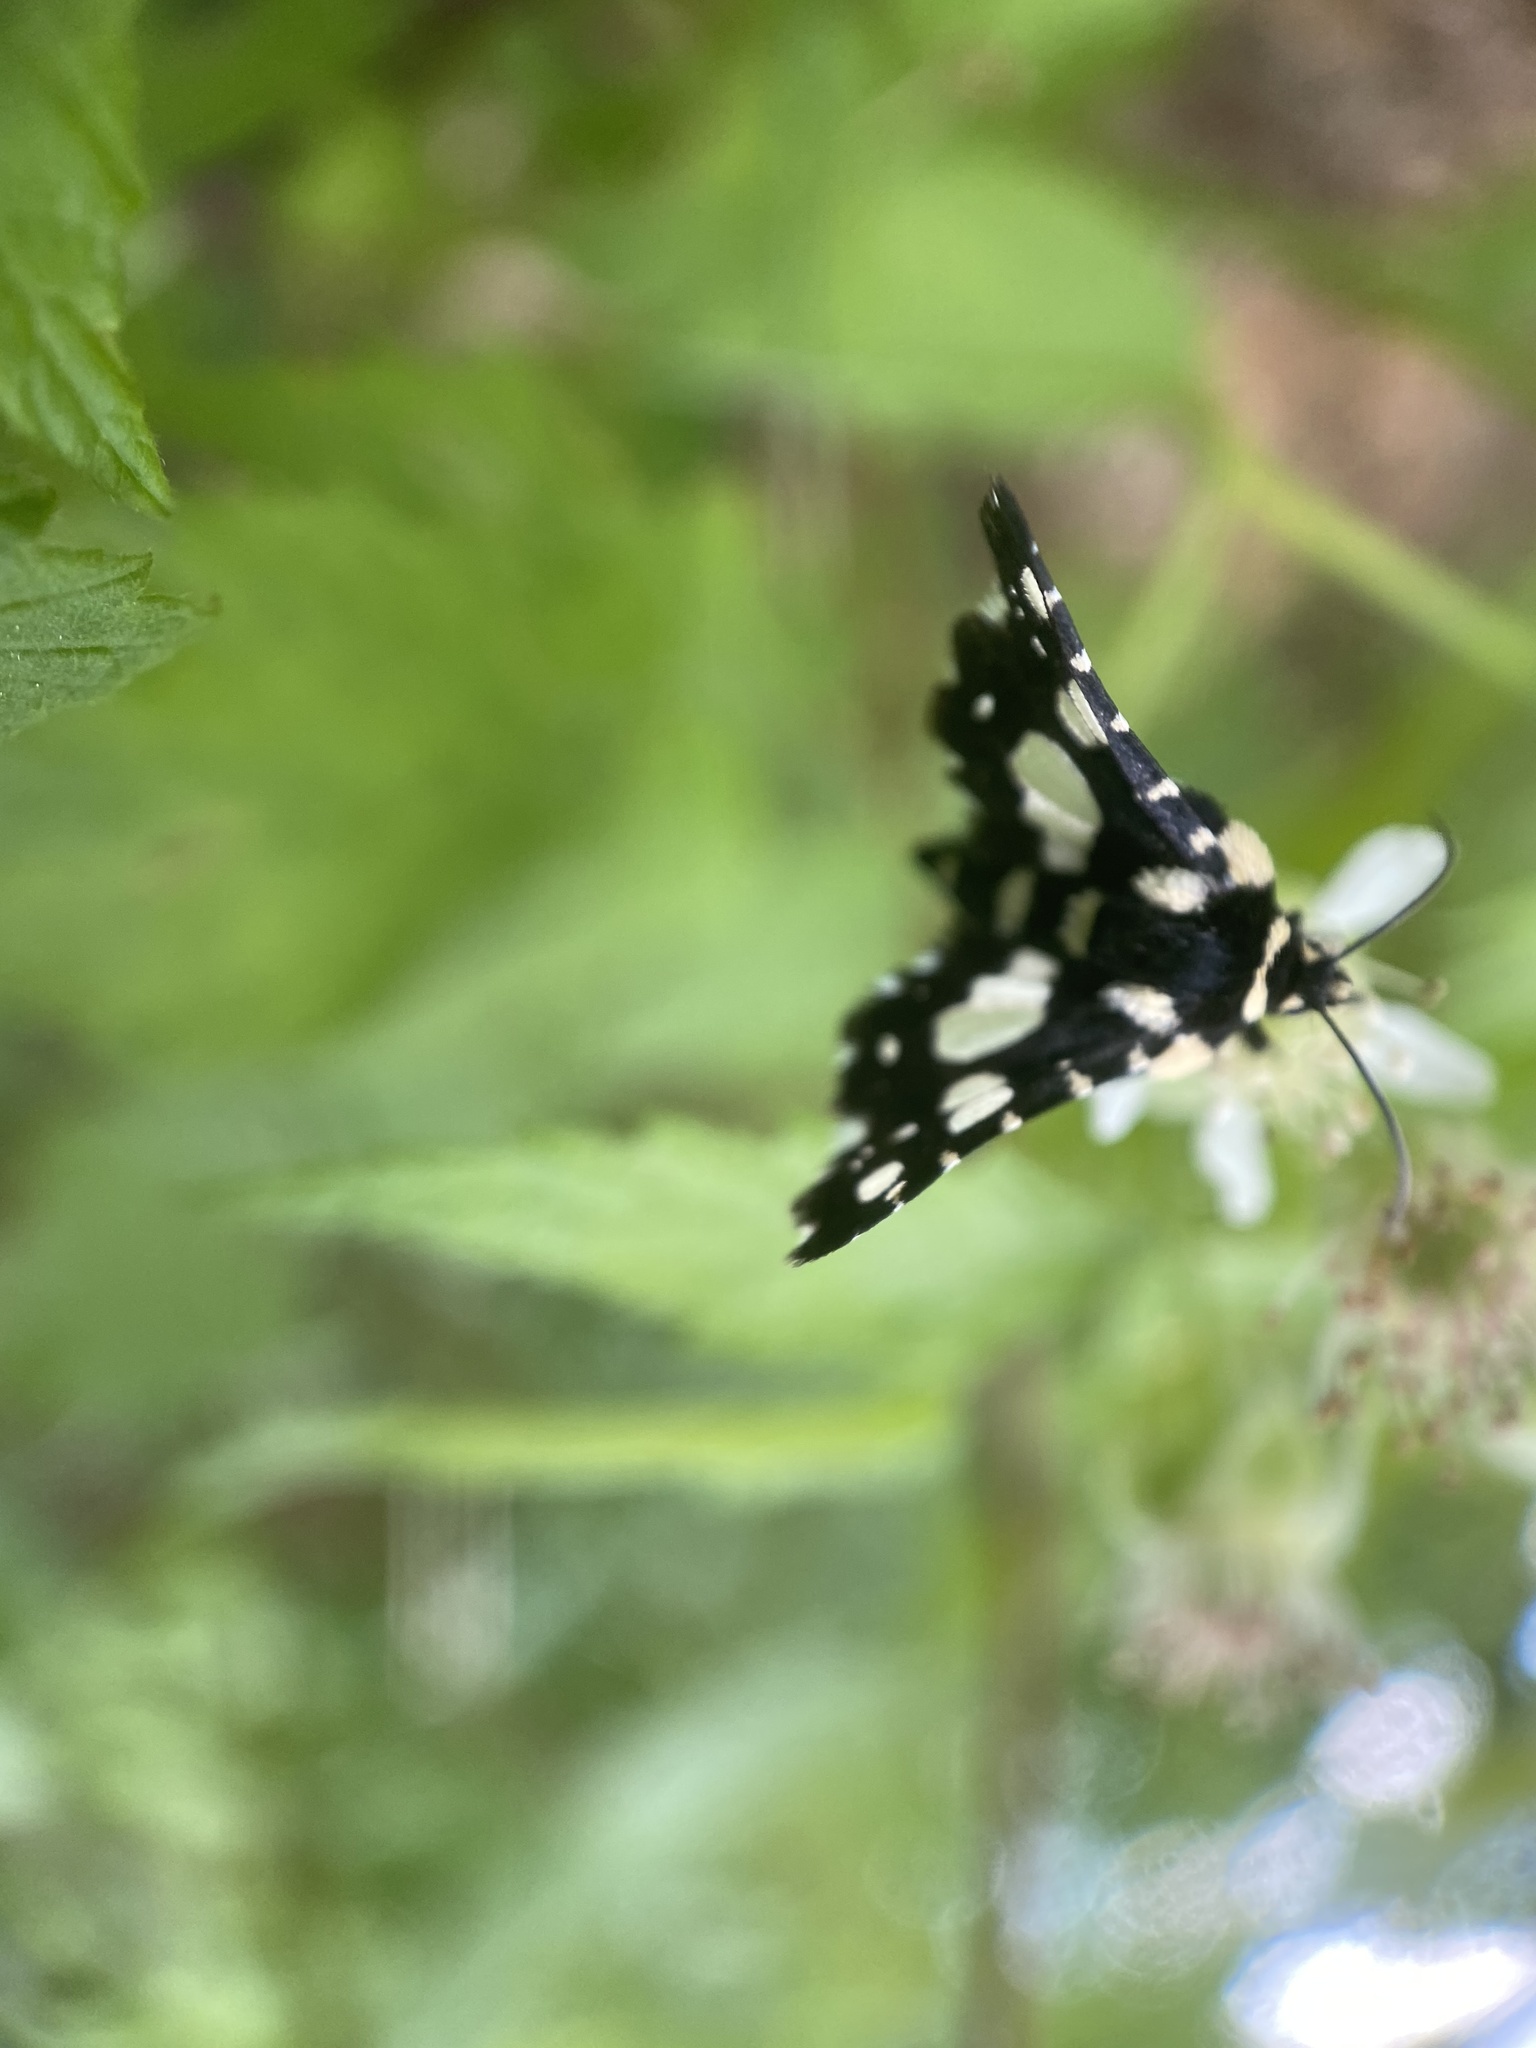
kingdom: Animalia
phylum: Arthropoda
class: Insecta
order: Lepidoptera
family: Thyrididae
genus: Pseudothyris
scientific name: Pseudothyris sepulchralis
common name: Mournful thyris moth
